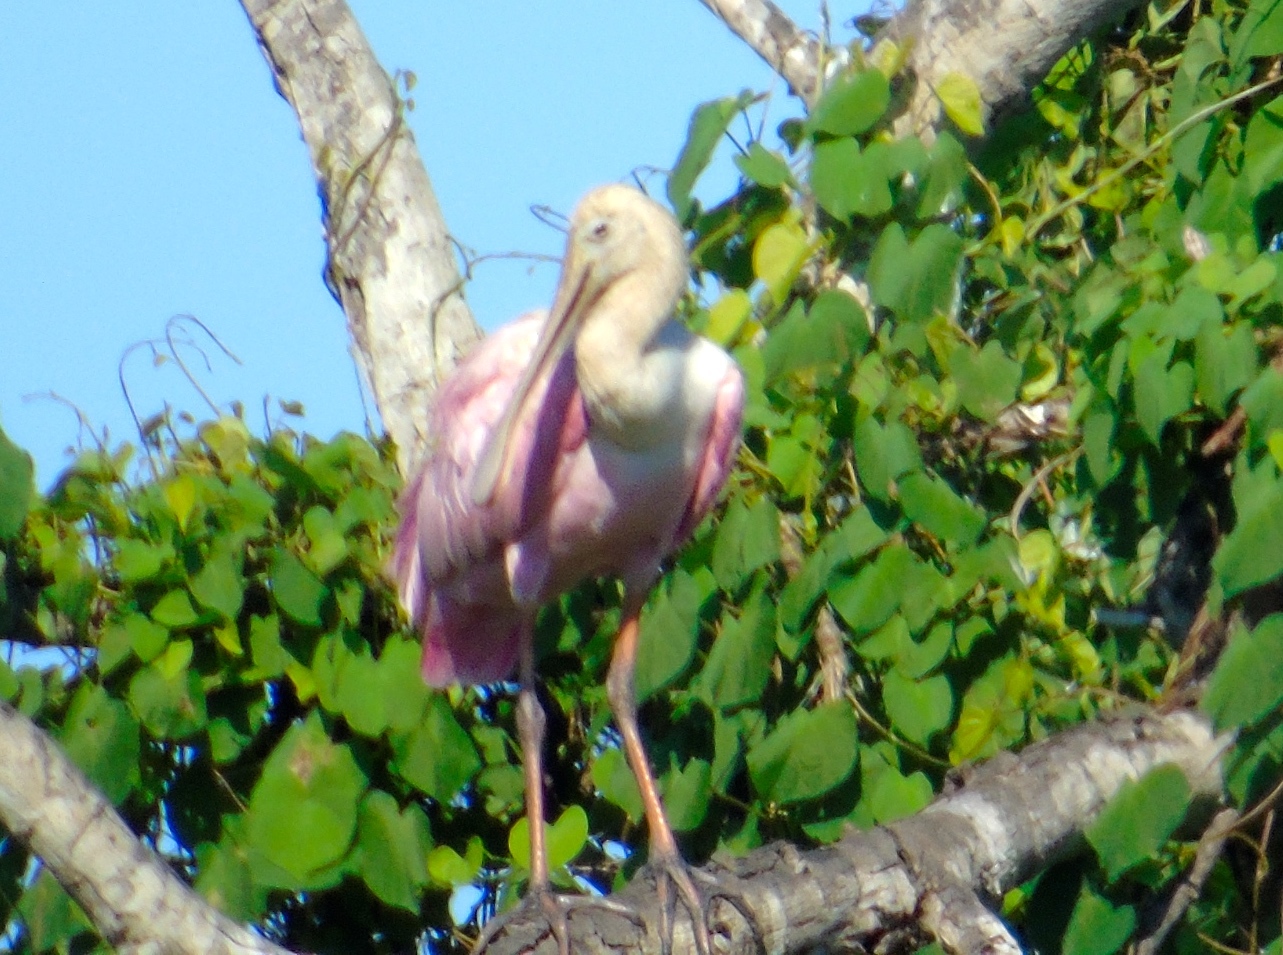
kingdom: Animalia
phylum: Chordata
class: Aves
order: Pelecaniformes
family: Threskiornithidae
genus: Platalea
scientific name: Platalea ajaja
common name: Roseate spoonbill
